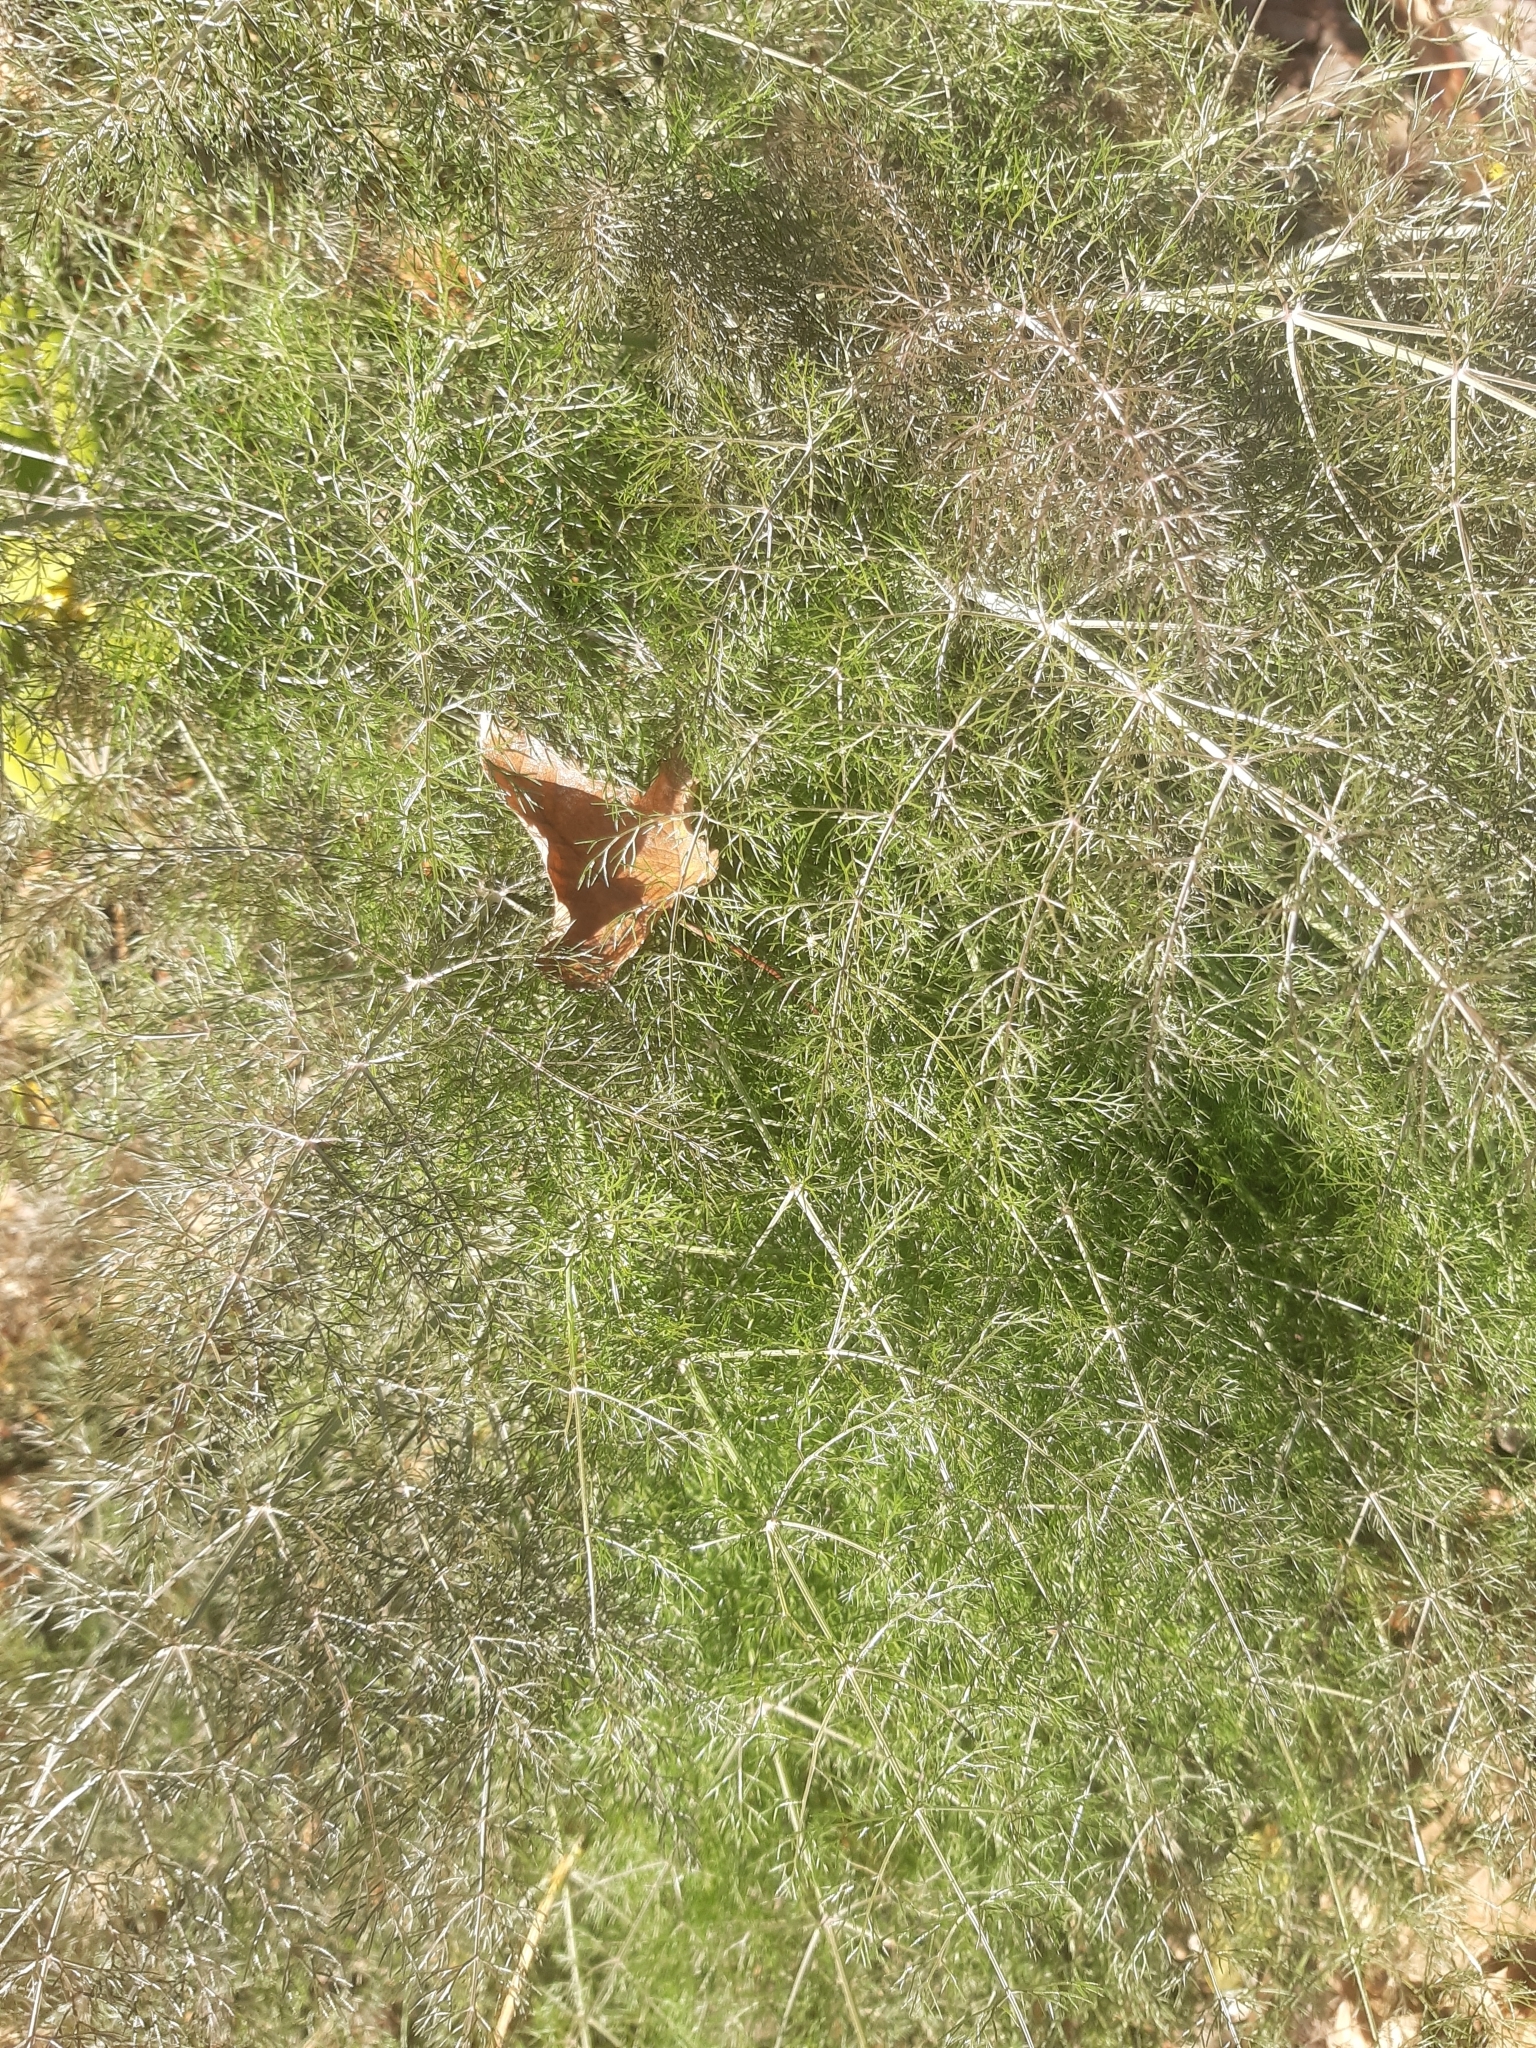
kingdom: Plantae
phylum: Tracheophyta
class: Magnoliopsida
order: Apiales
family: Apiaceae
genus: Foeniculum
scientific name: Foeniculum vulgare
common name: Fennel
